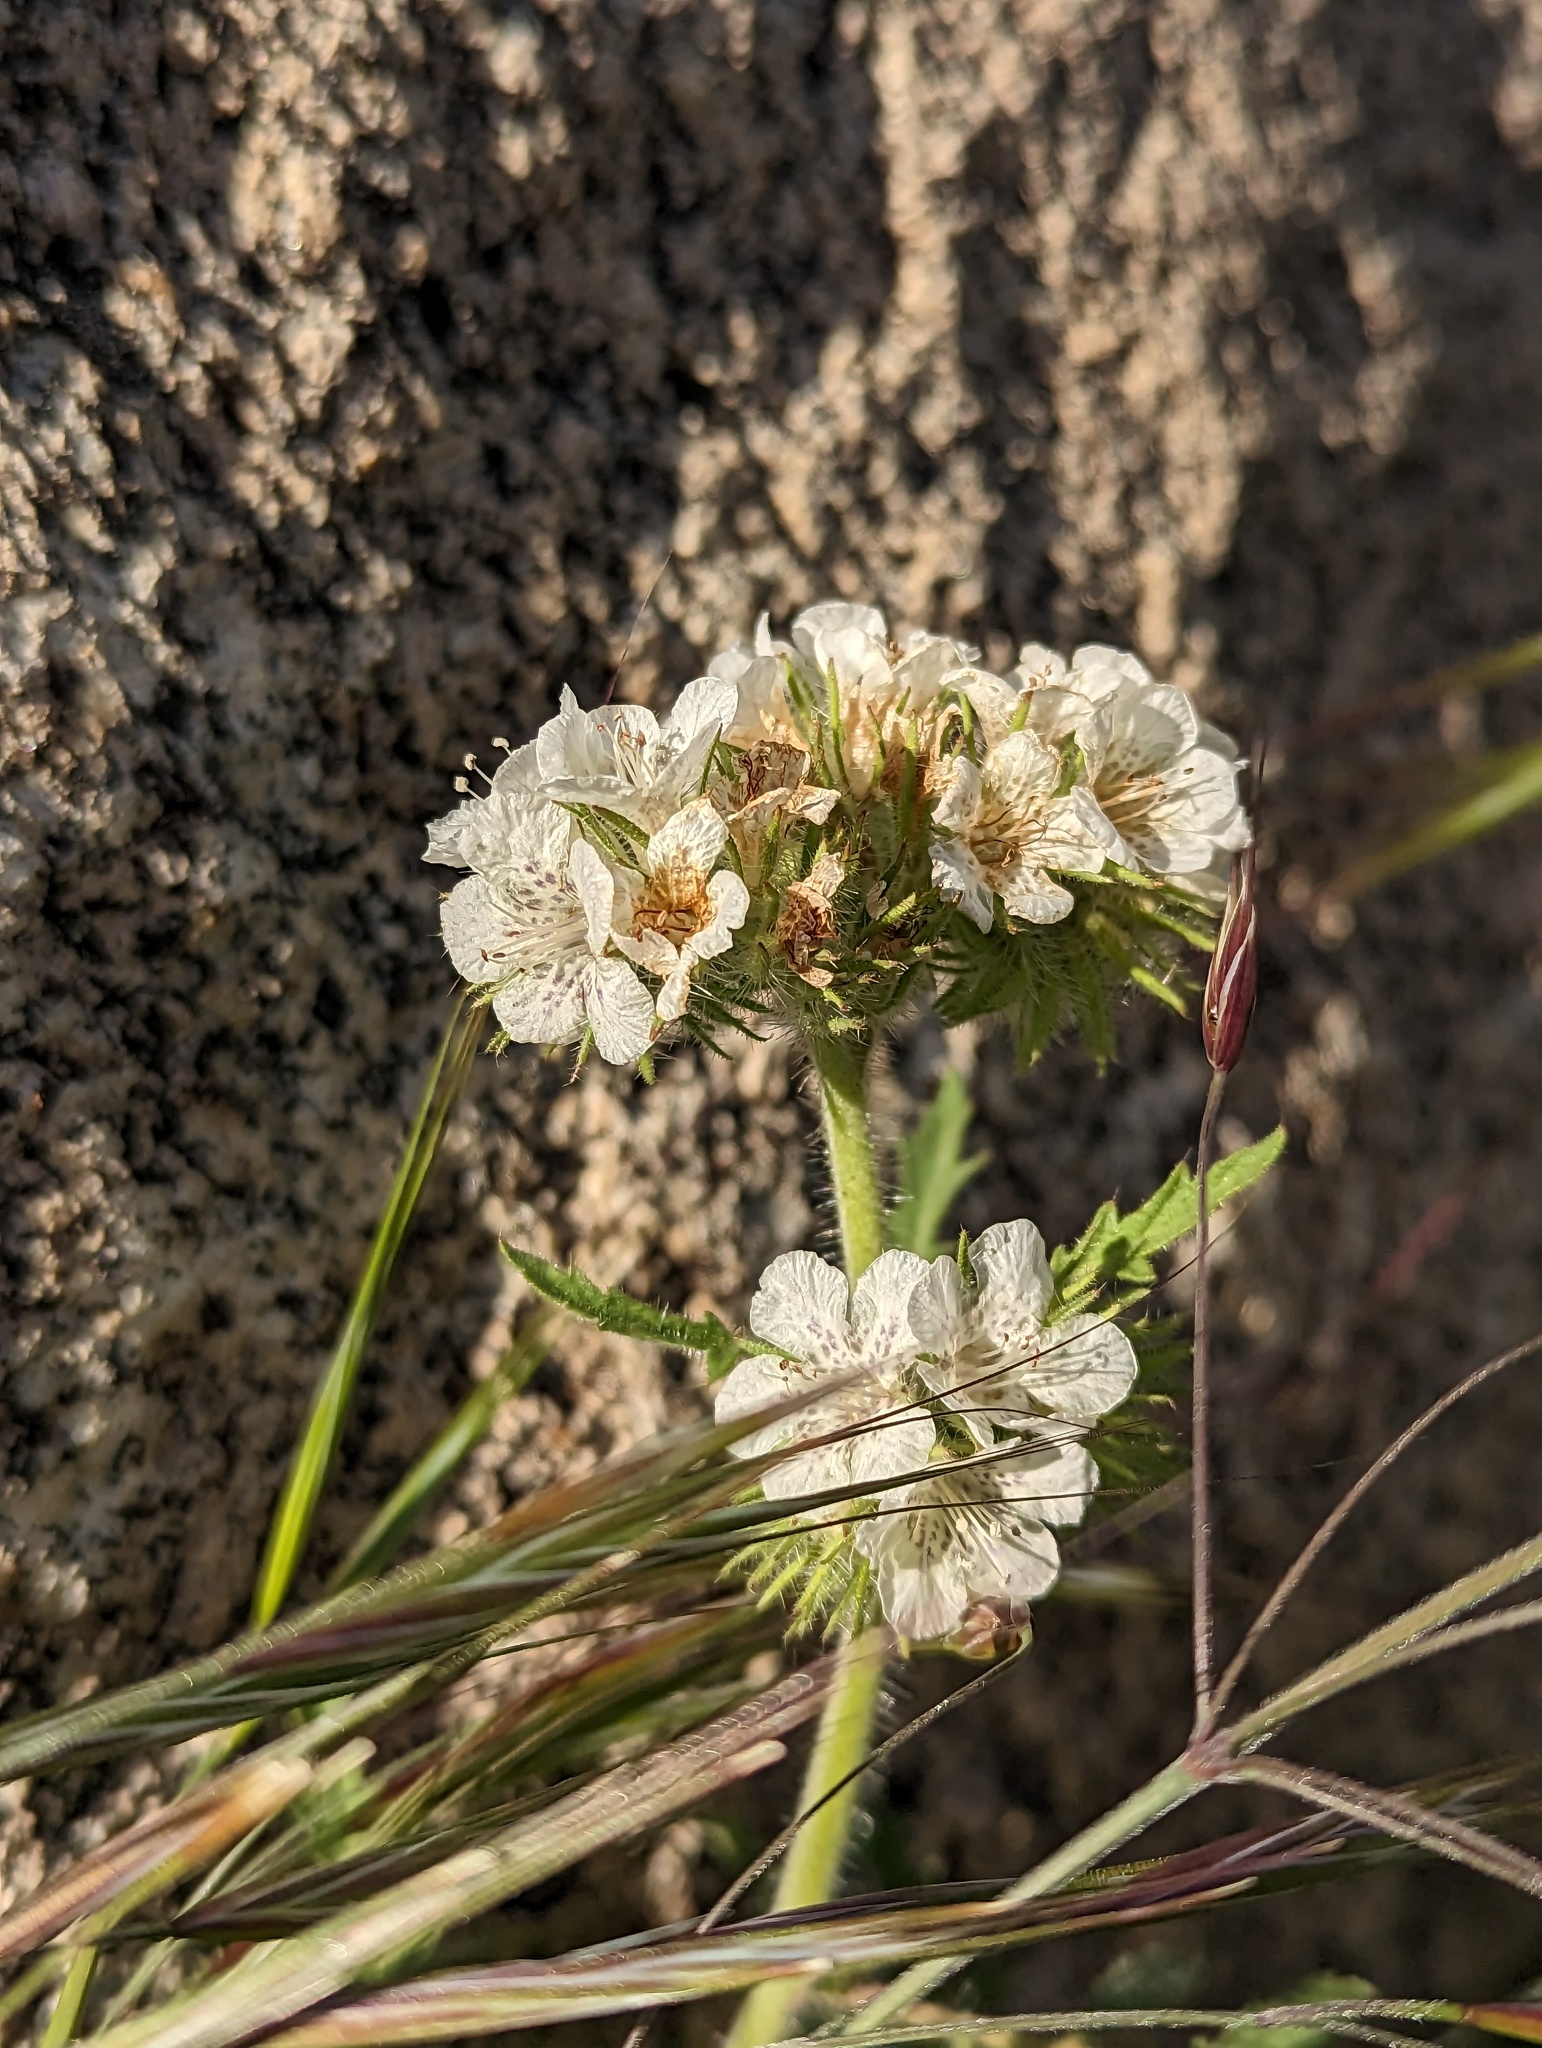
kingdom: Plantae
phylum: Tracheophyta
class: Magnoliopsida
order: Boraginales
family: Hydrophyllaceae
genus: Phacelia
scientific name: Phacelia cicutaria
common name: Caterpillar phacelia
